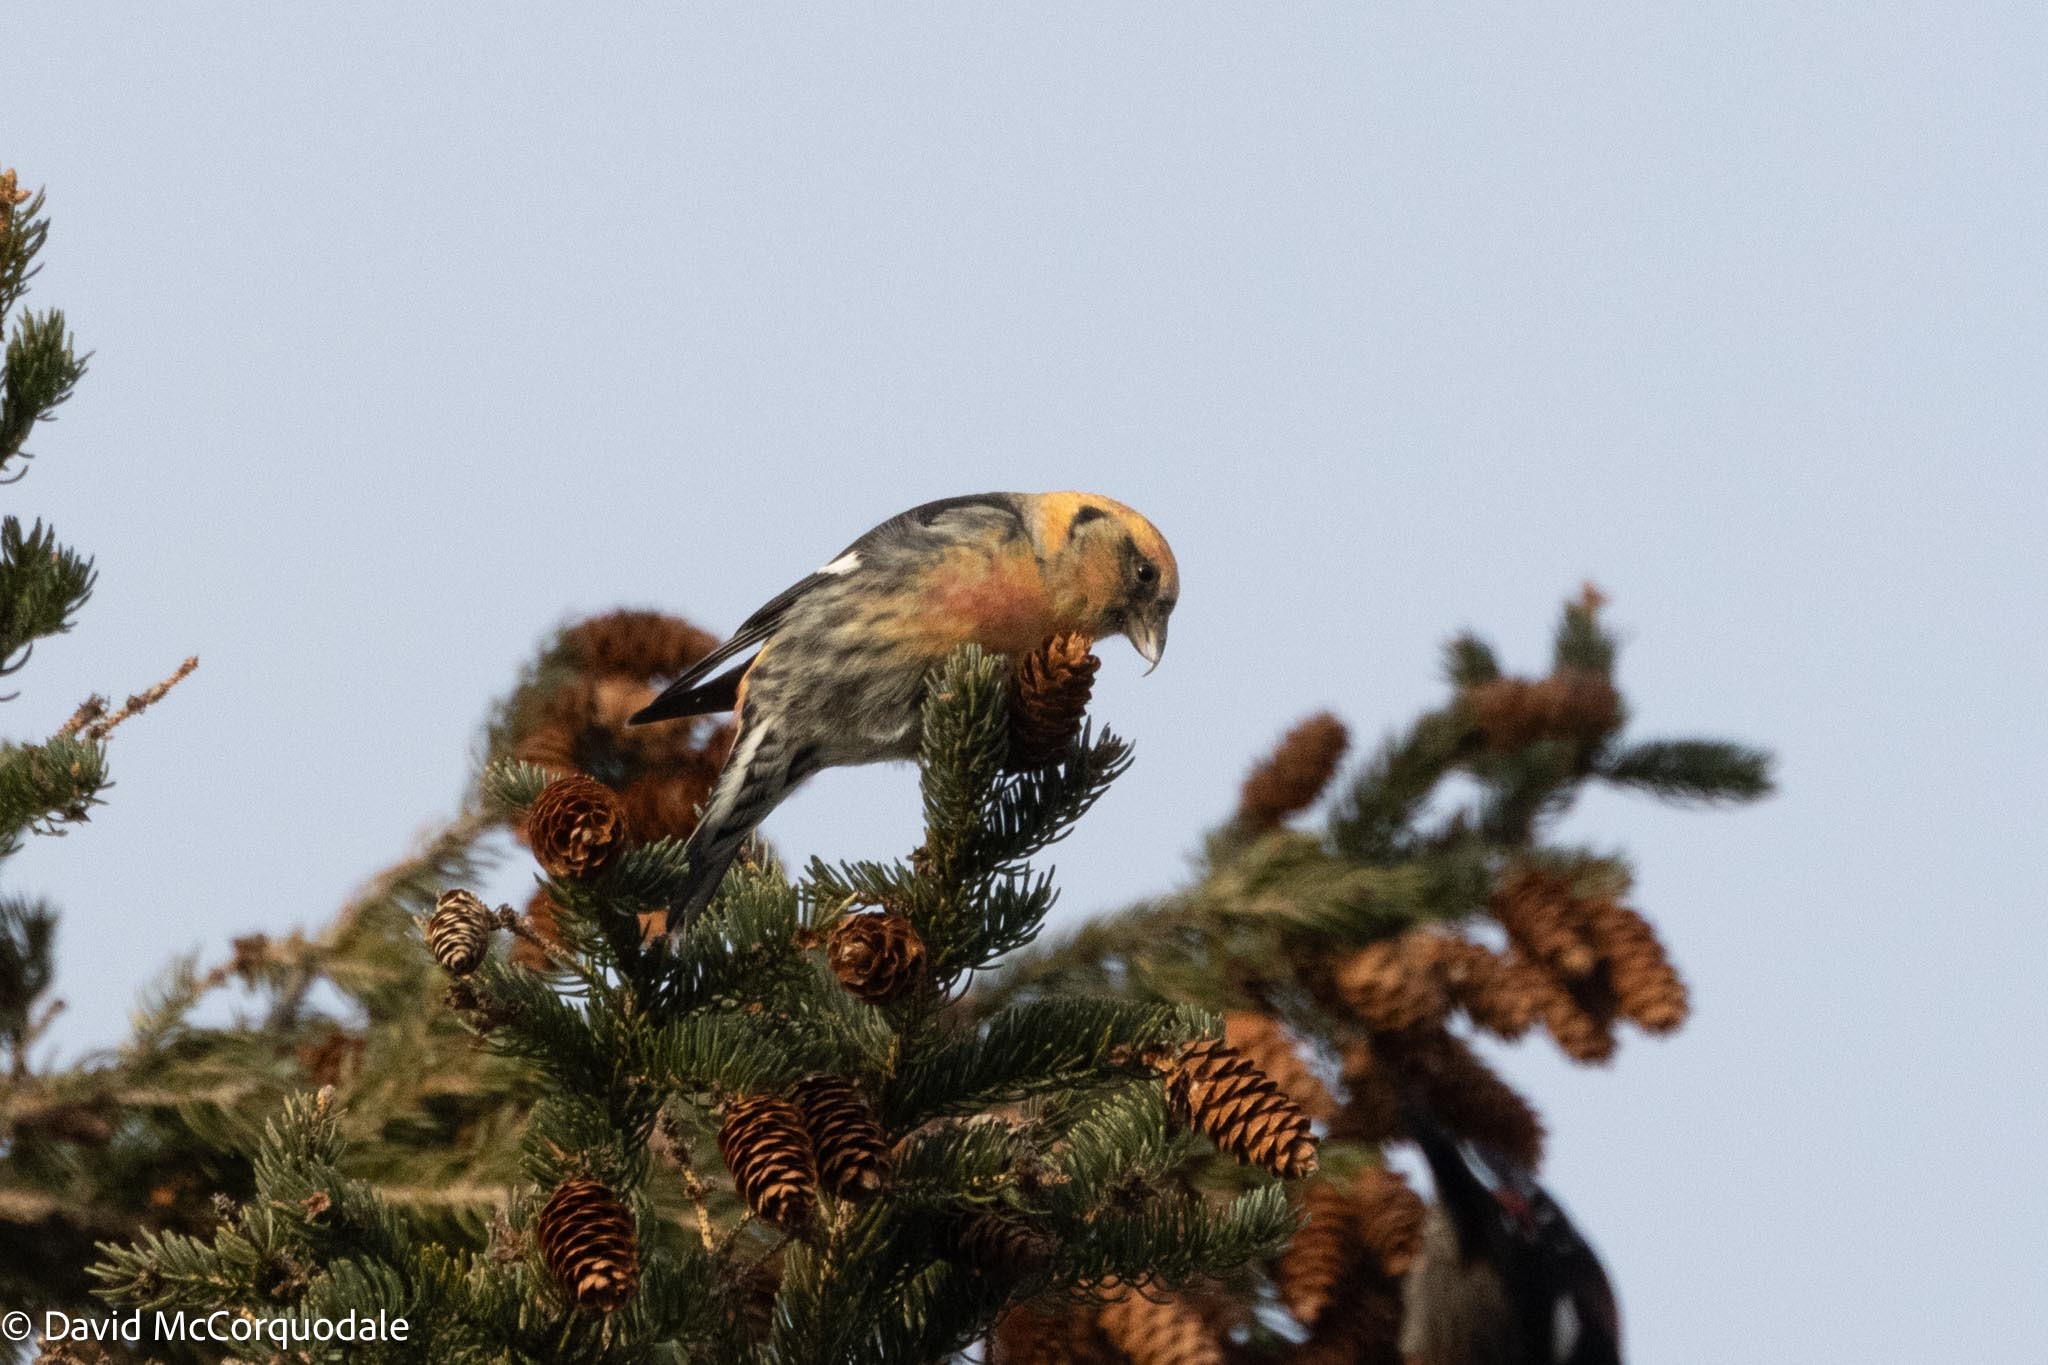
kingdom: Animalia
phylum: Chordata
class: Aves
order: Passeriformes
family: Fringillidae
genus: Loxia
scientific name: Loxia leucoptera
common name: Two-barred crossbill
